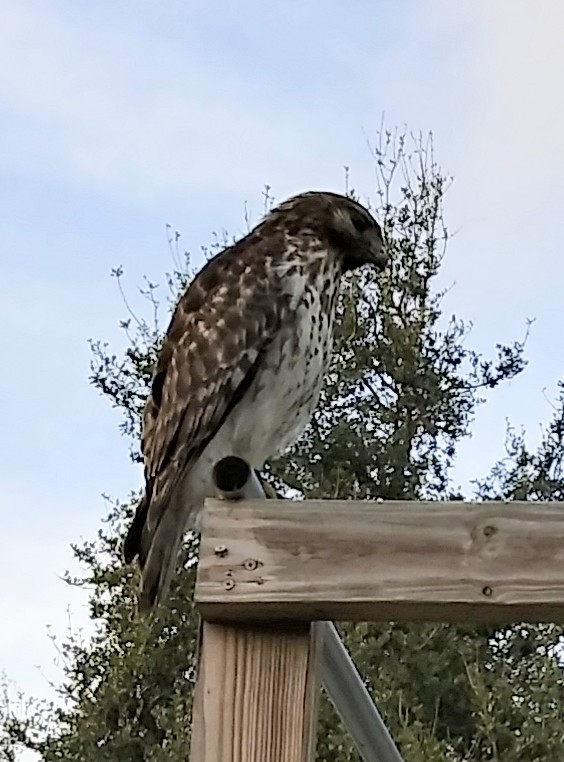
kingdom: Animalia
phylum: Chordata
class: Aves
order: Accipitriformes
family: Accipitridae
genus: Buteo
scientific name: Buteo lineatus
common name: Red-shouldered hawk
